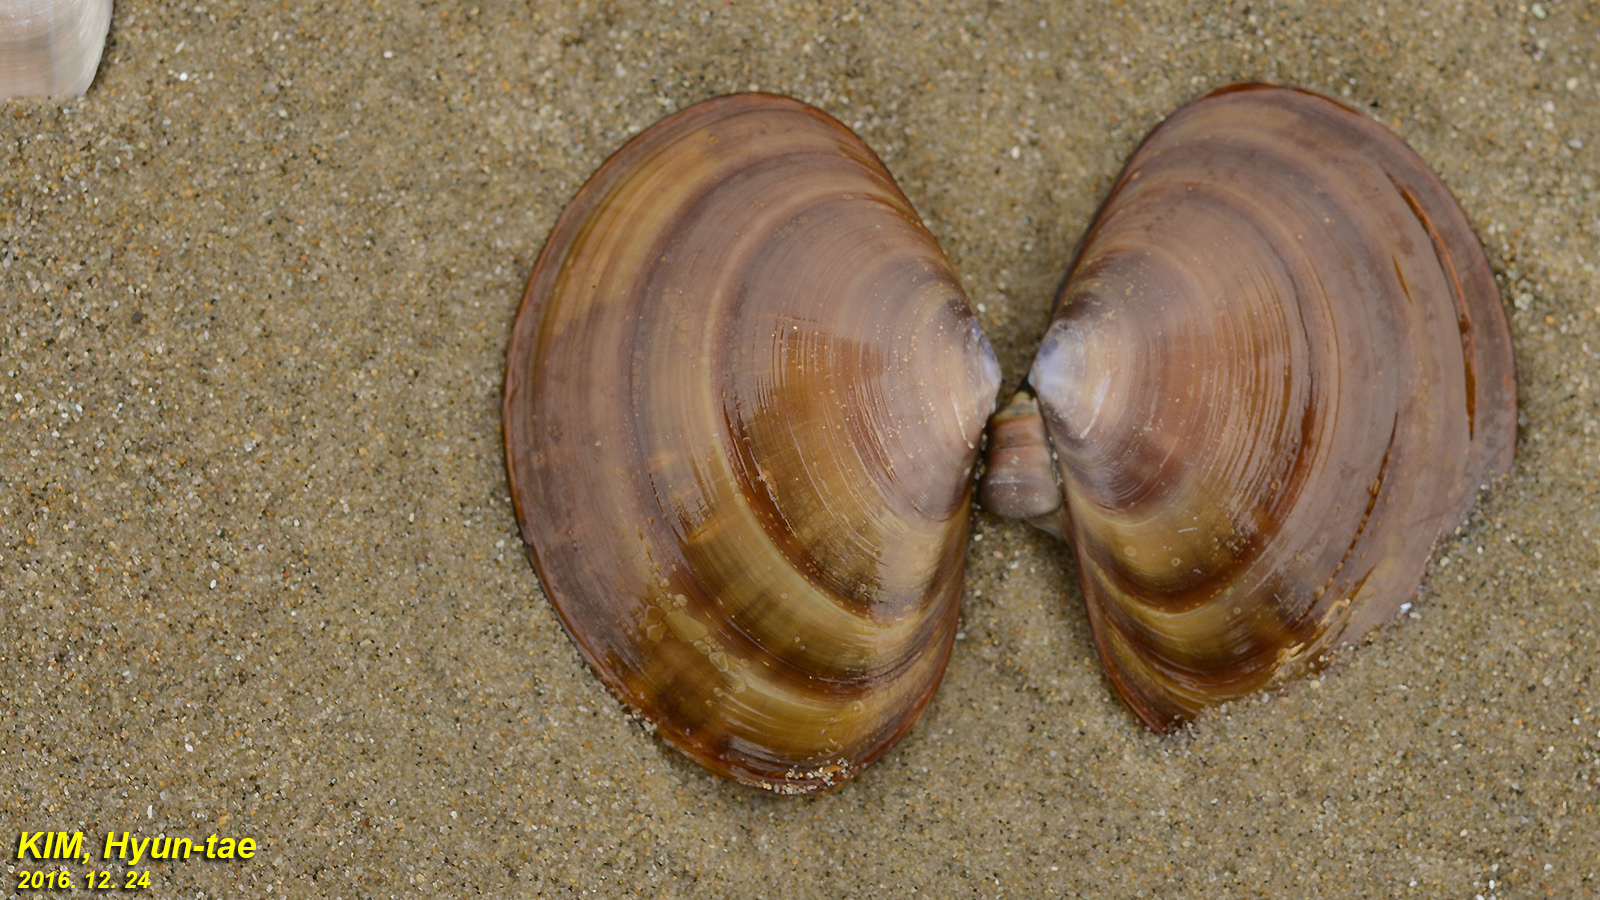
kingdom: Animalia
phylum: Mollusca
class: Bivalvia
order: Cardiida
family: Psammobiidae
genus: Nuttallia
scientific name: Nuttallia japonica
